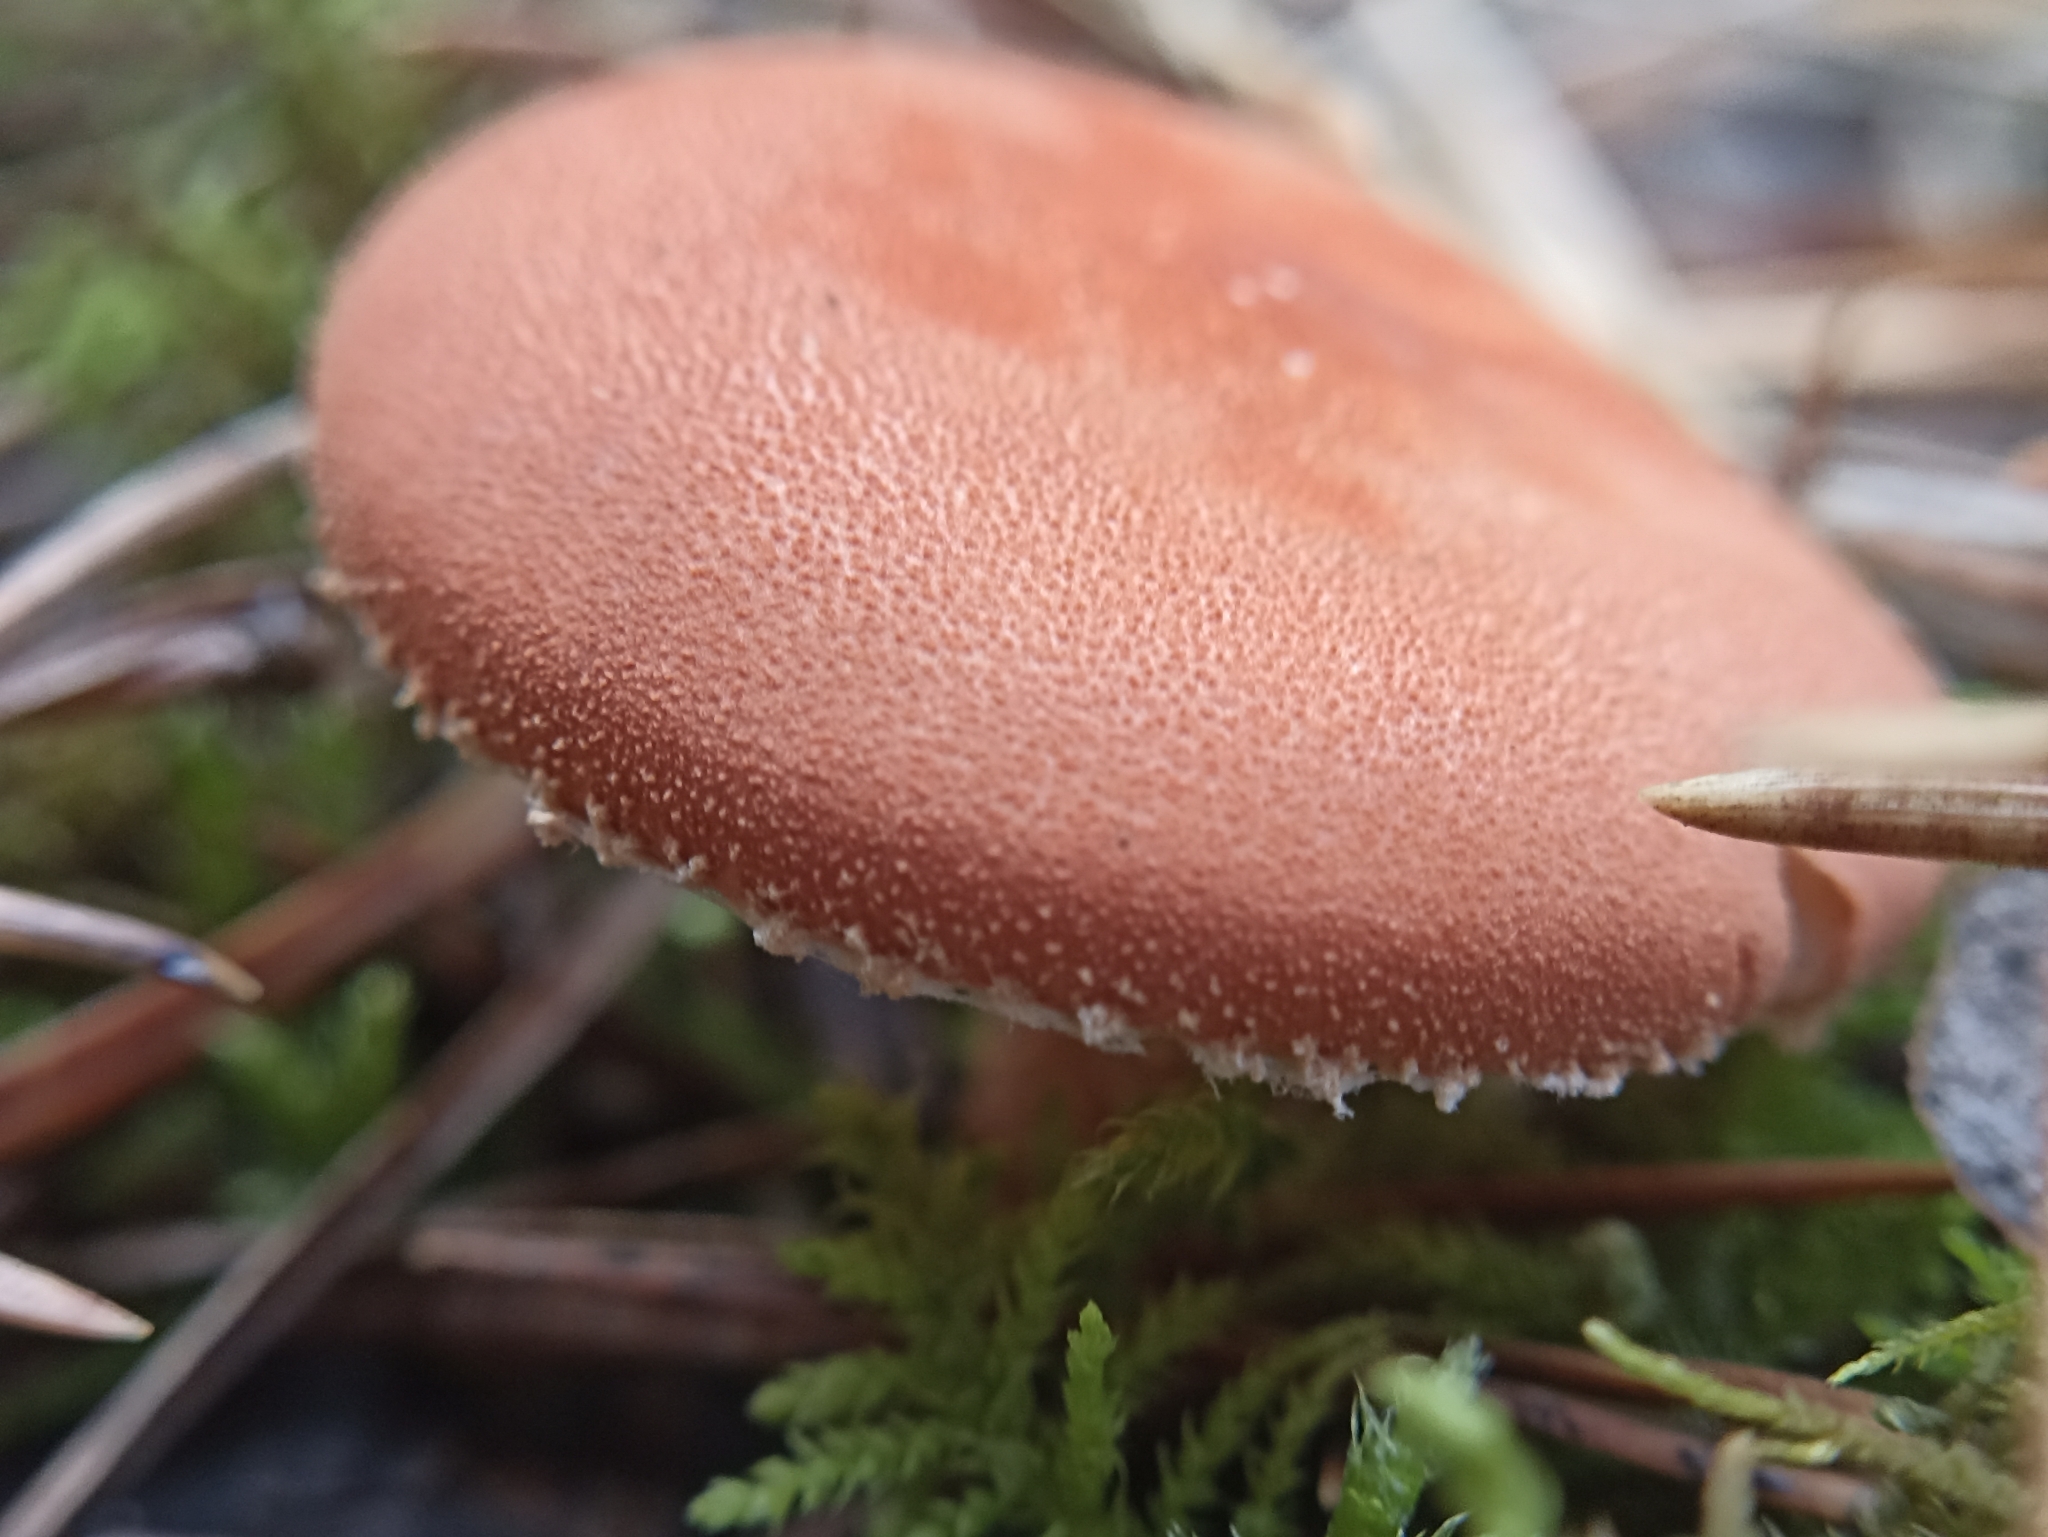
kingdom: Fungi
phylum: Basidiomycota
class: Agaricomycetes
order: Agaricales
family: Agaricaceae
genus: Cystodermella
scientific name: Cystodermella cinnabarina
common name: Cinnabar powdercap
